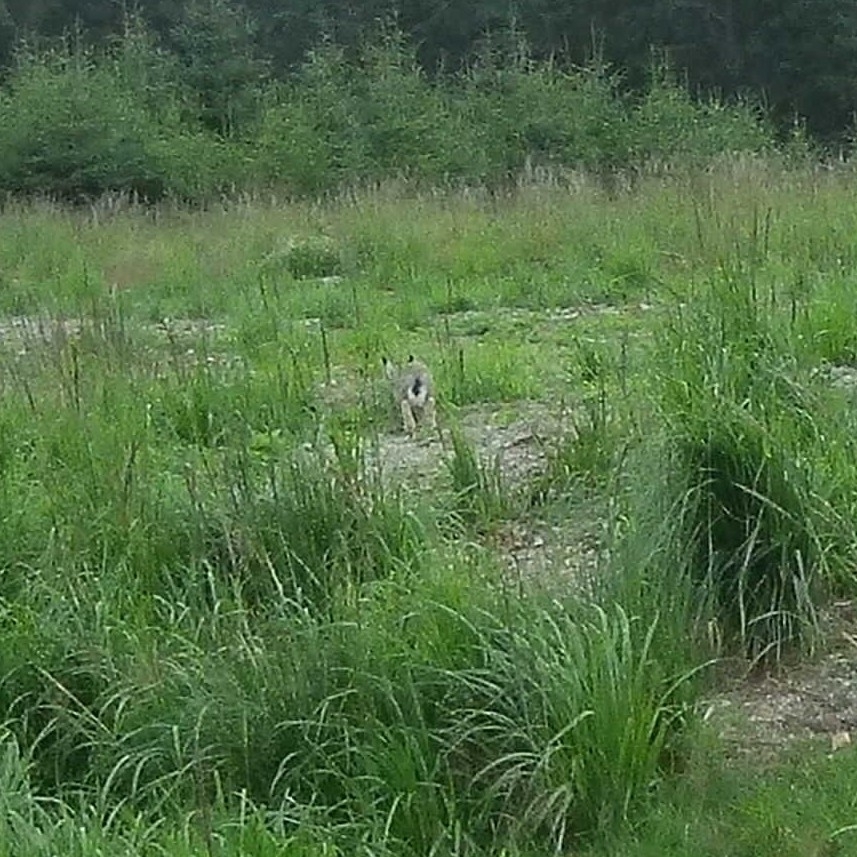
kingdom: Animalia
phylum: Chordata
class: Mammalia
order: Lagomorpha
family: Leporidae
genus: Lepus
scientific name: Lepus europaeus
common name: European hare
